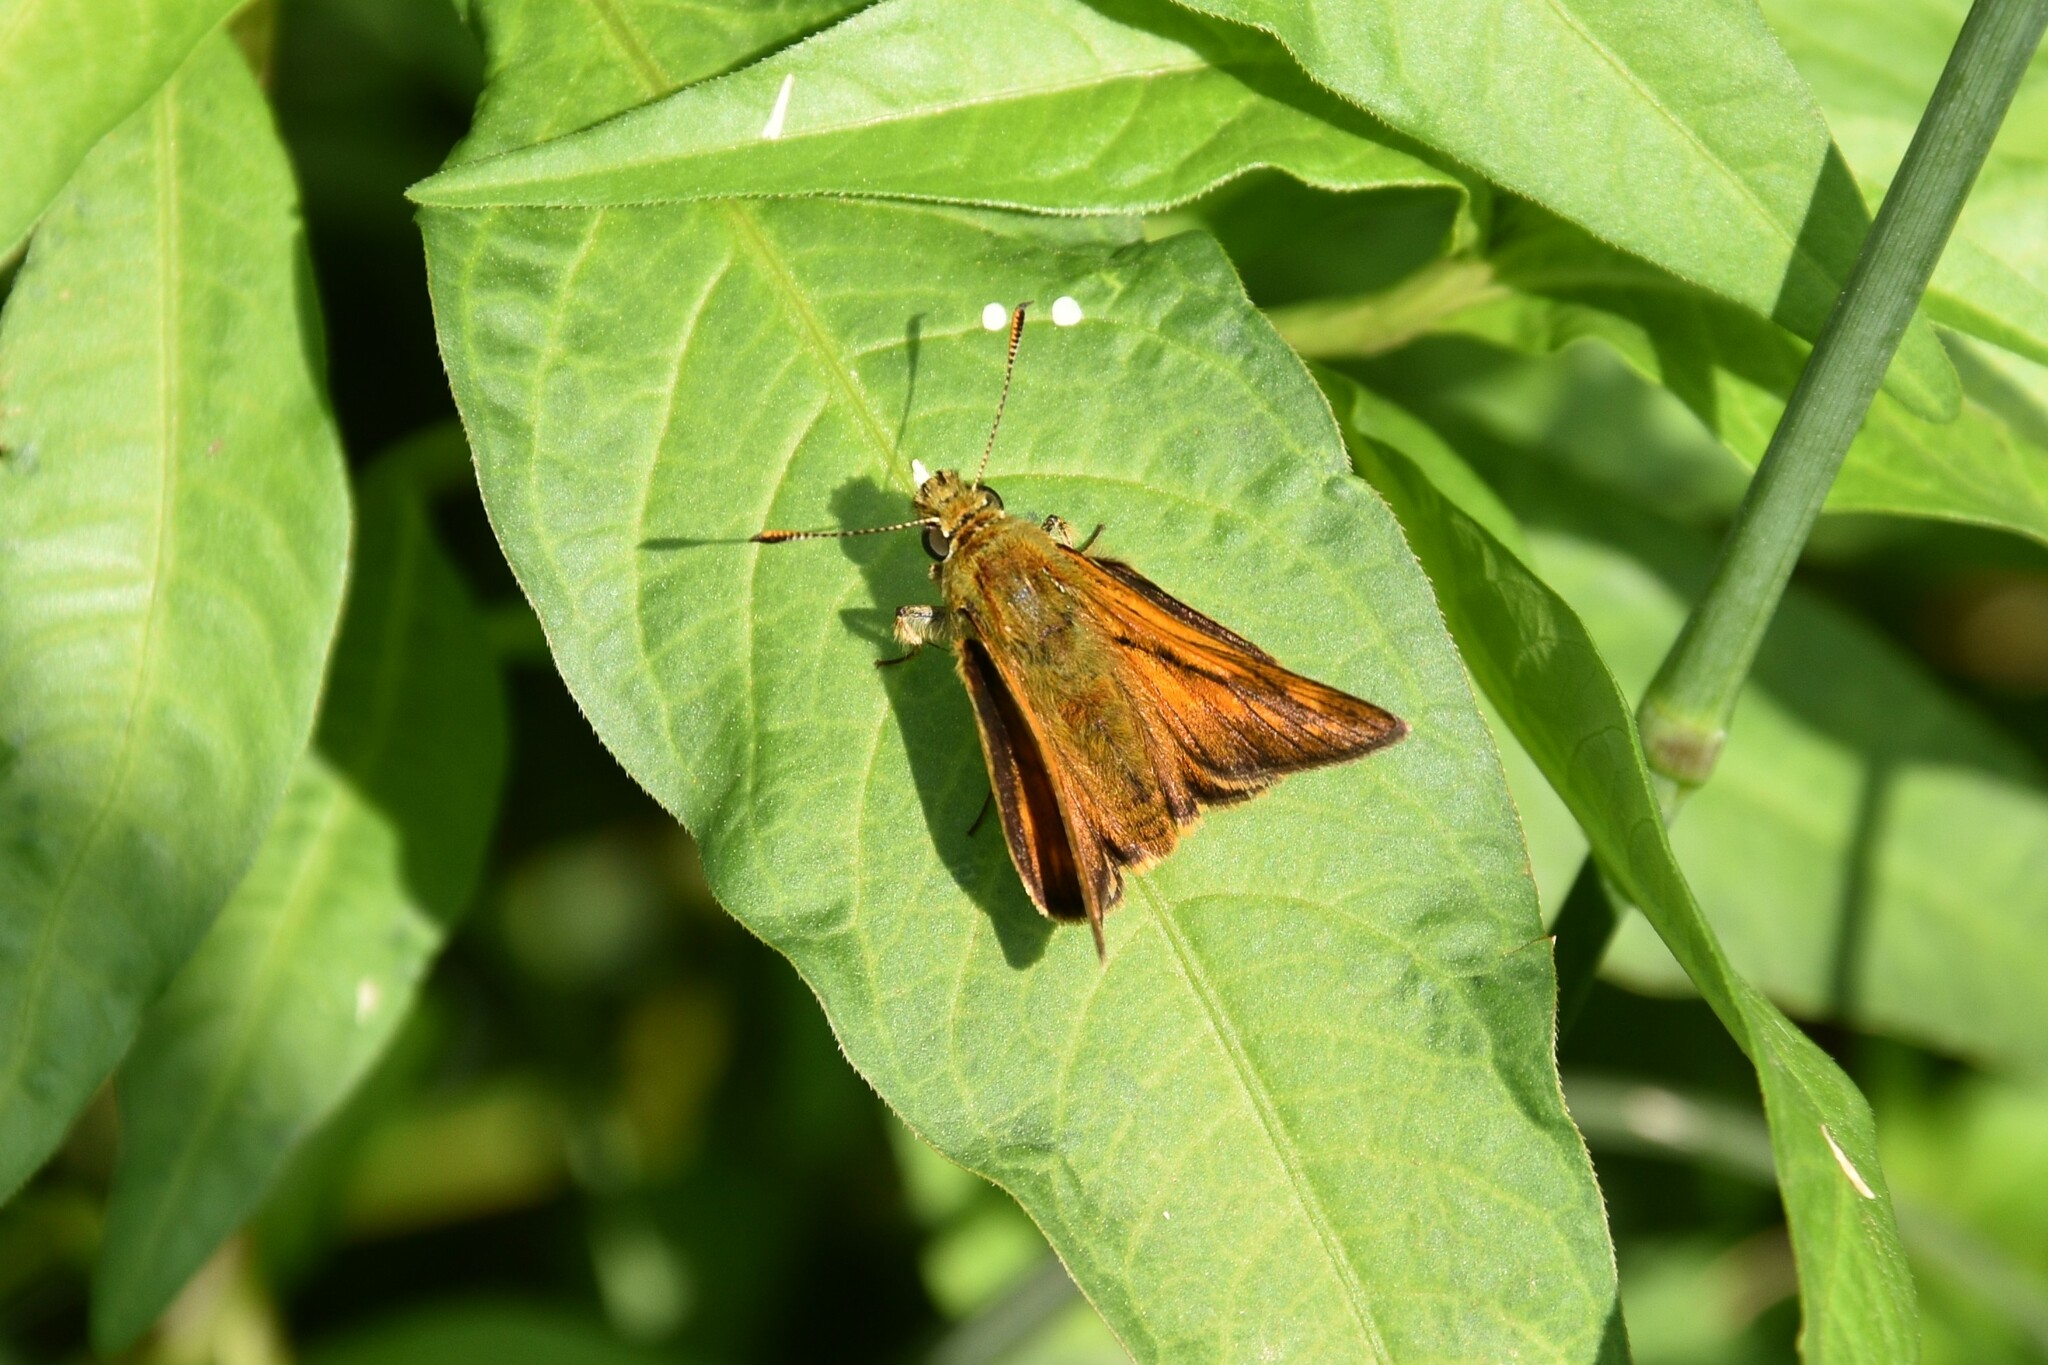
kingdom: Animalia
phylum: Arthropoda
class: Insecta
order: Lepidoptera
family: Hesperiidae
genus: Ochlodes
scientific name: Ochlodes venata
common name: Large skipper
